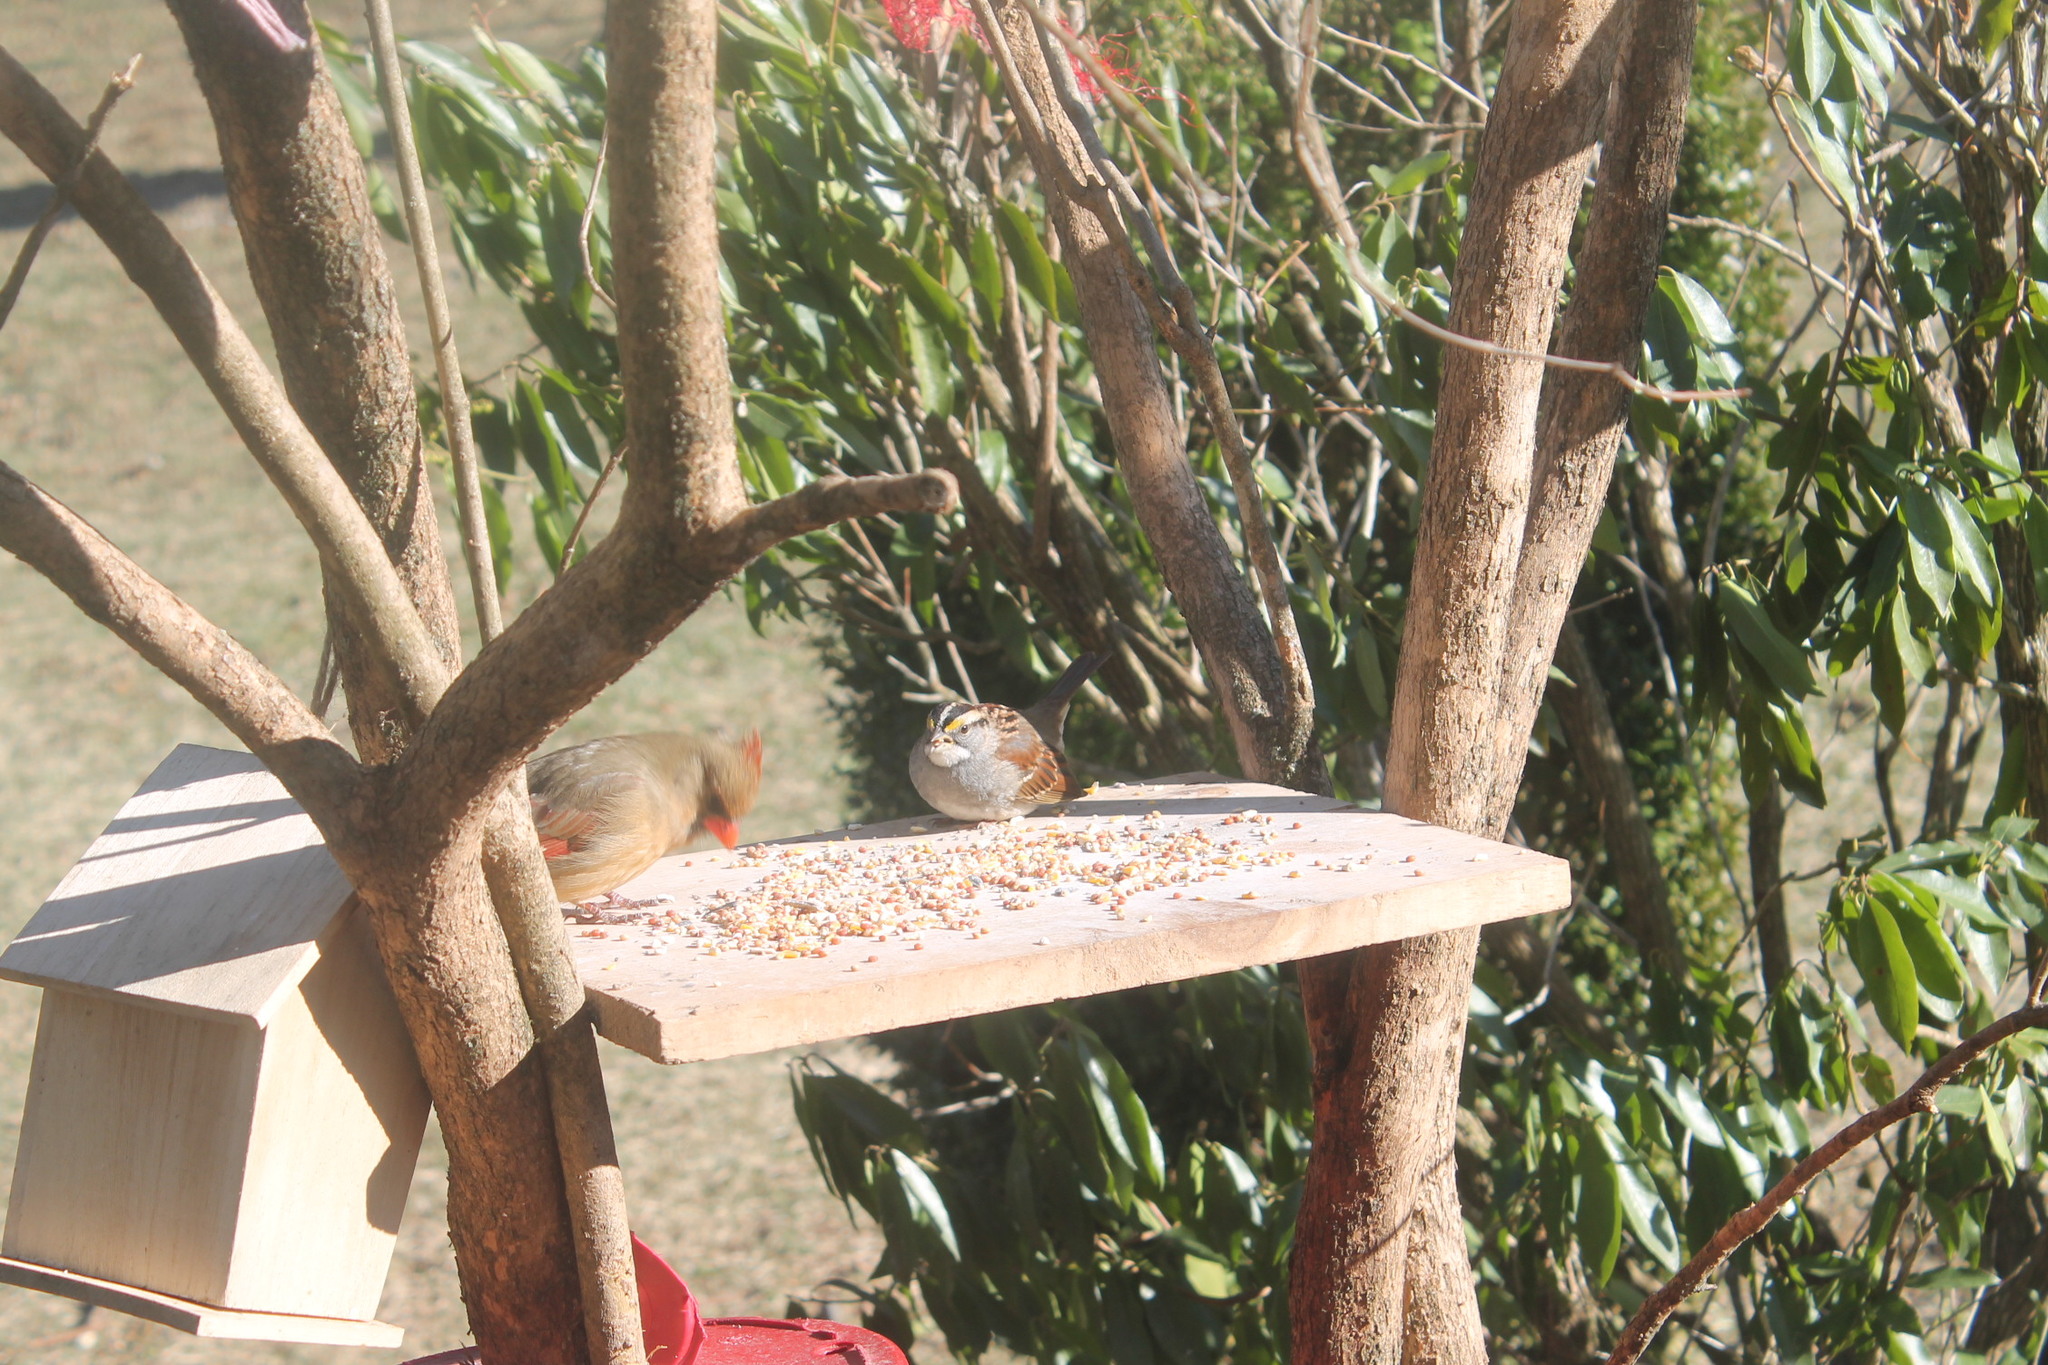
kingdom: Animalia
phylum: Chordata
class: Aves
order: Passeriformes
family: Passerellidae
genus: Zonotrichia
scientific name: Zonotrichia albicollis
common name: White-throated sparrow
